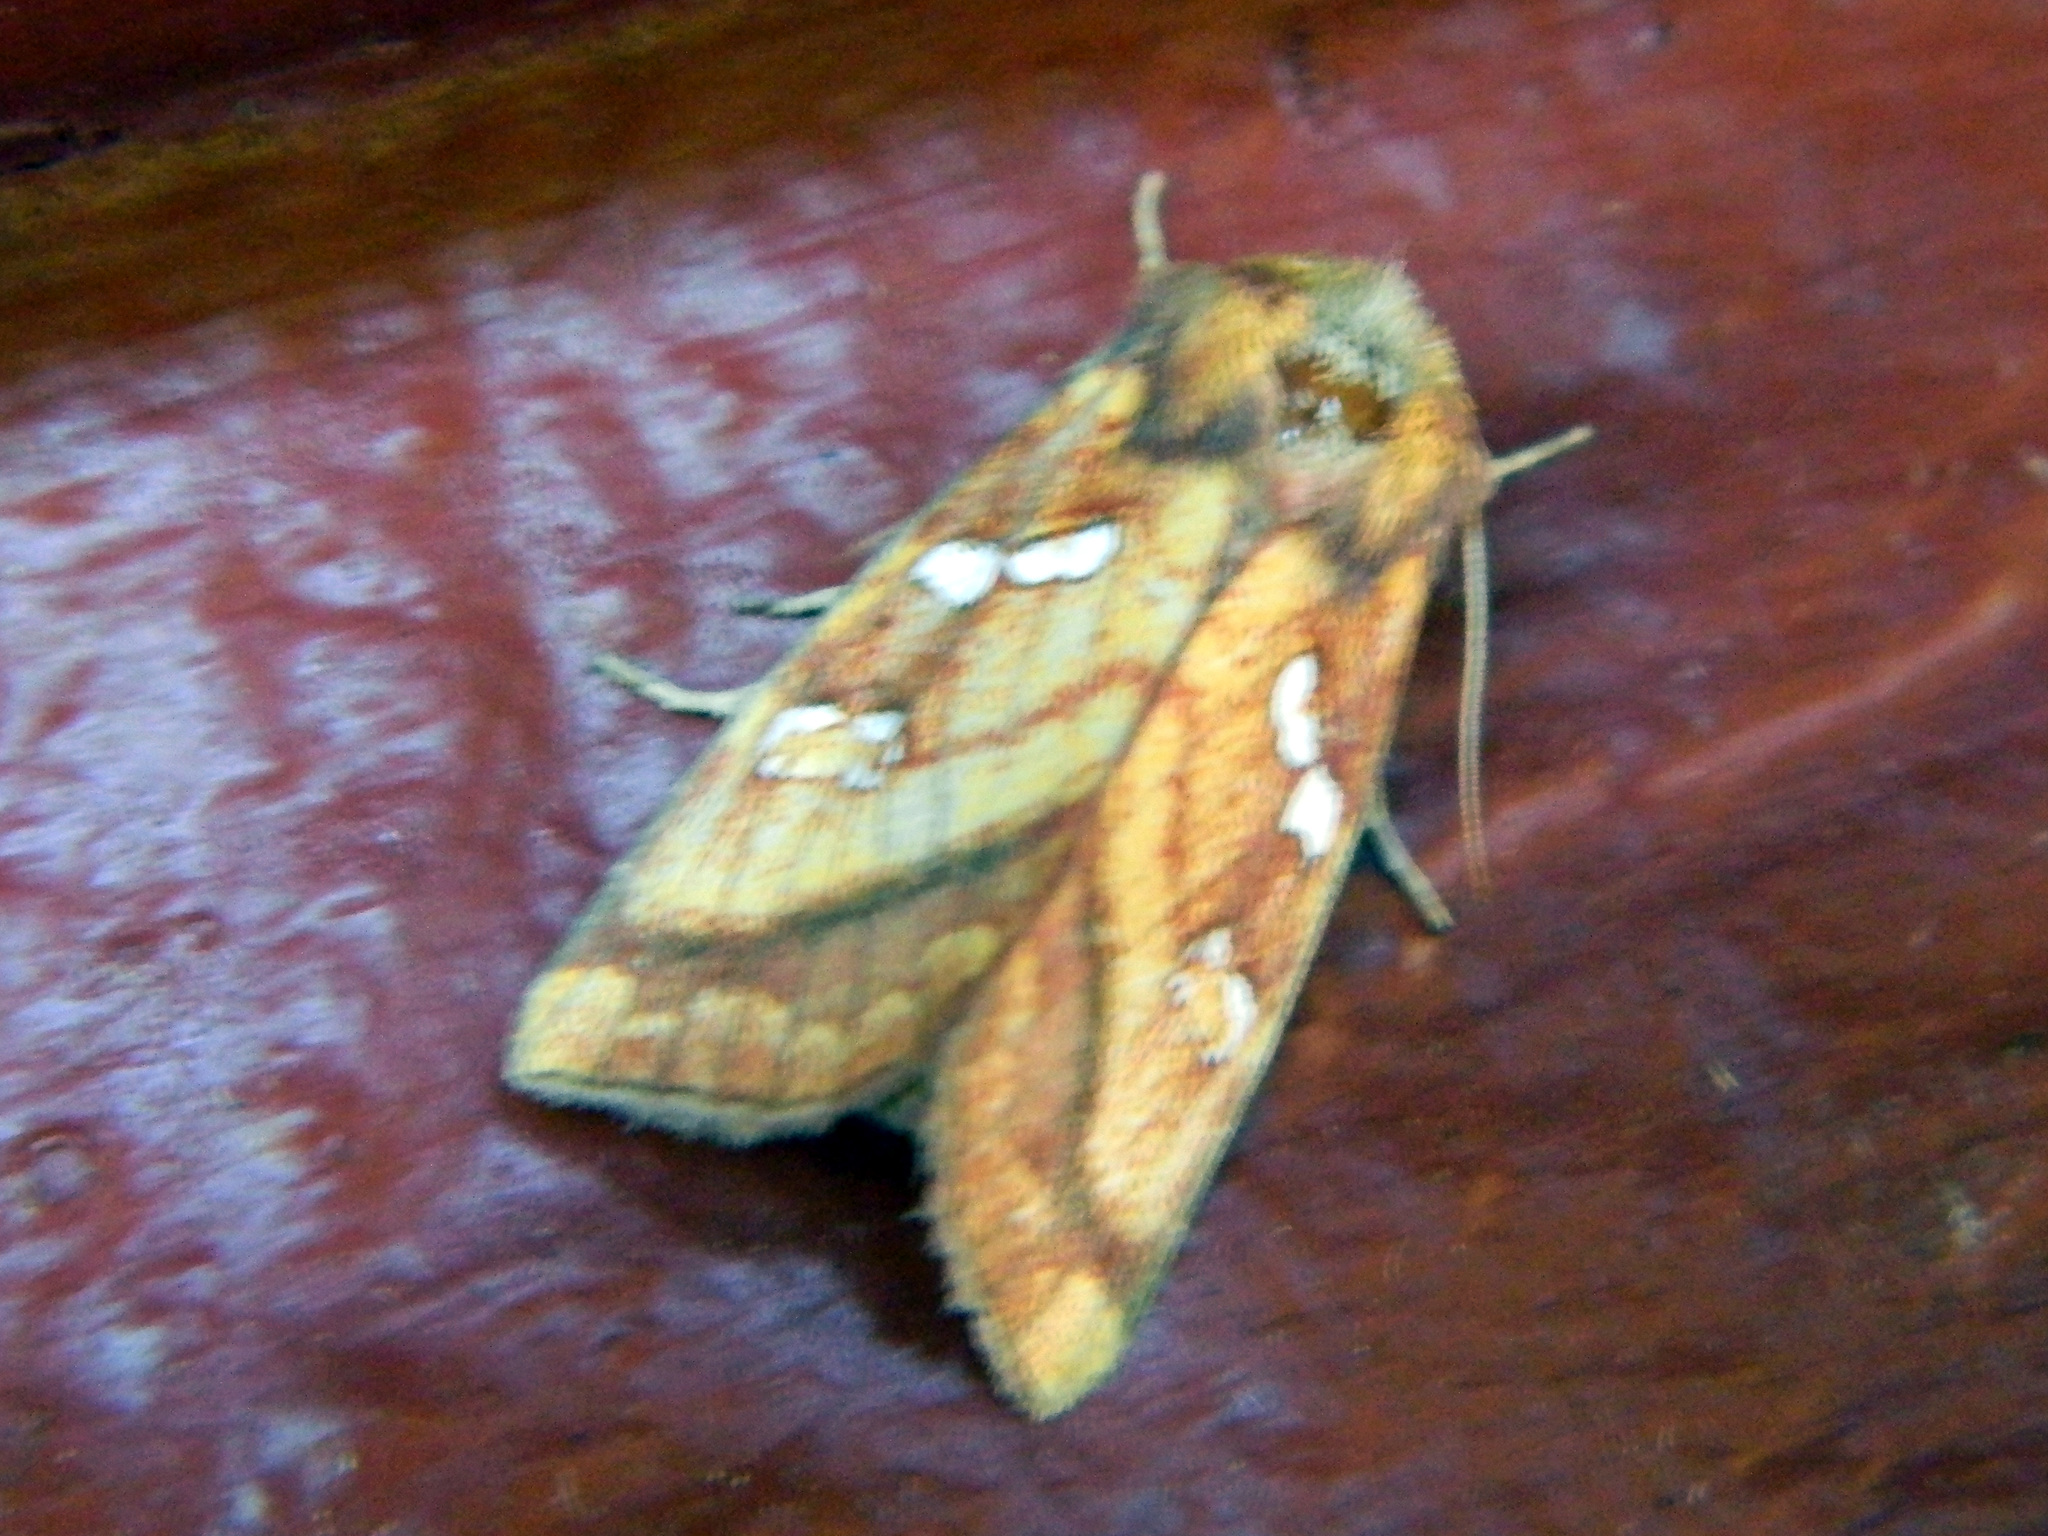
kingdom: Animalia
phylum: Arthropoda
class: Insecta
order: Lepidoptera
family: Noctuidae
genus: Papaipema
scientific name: Papaipema pterisii
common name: Bracken borer moth
